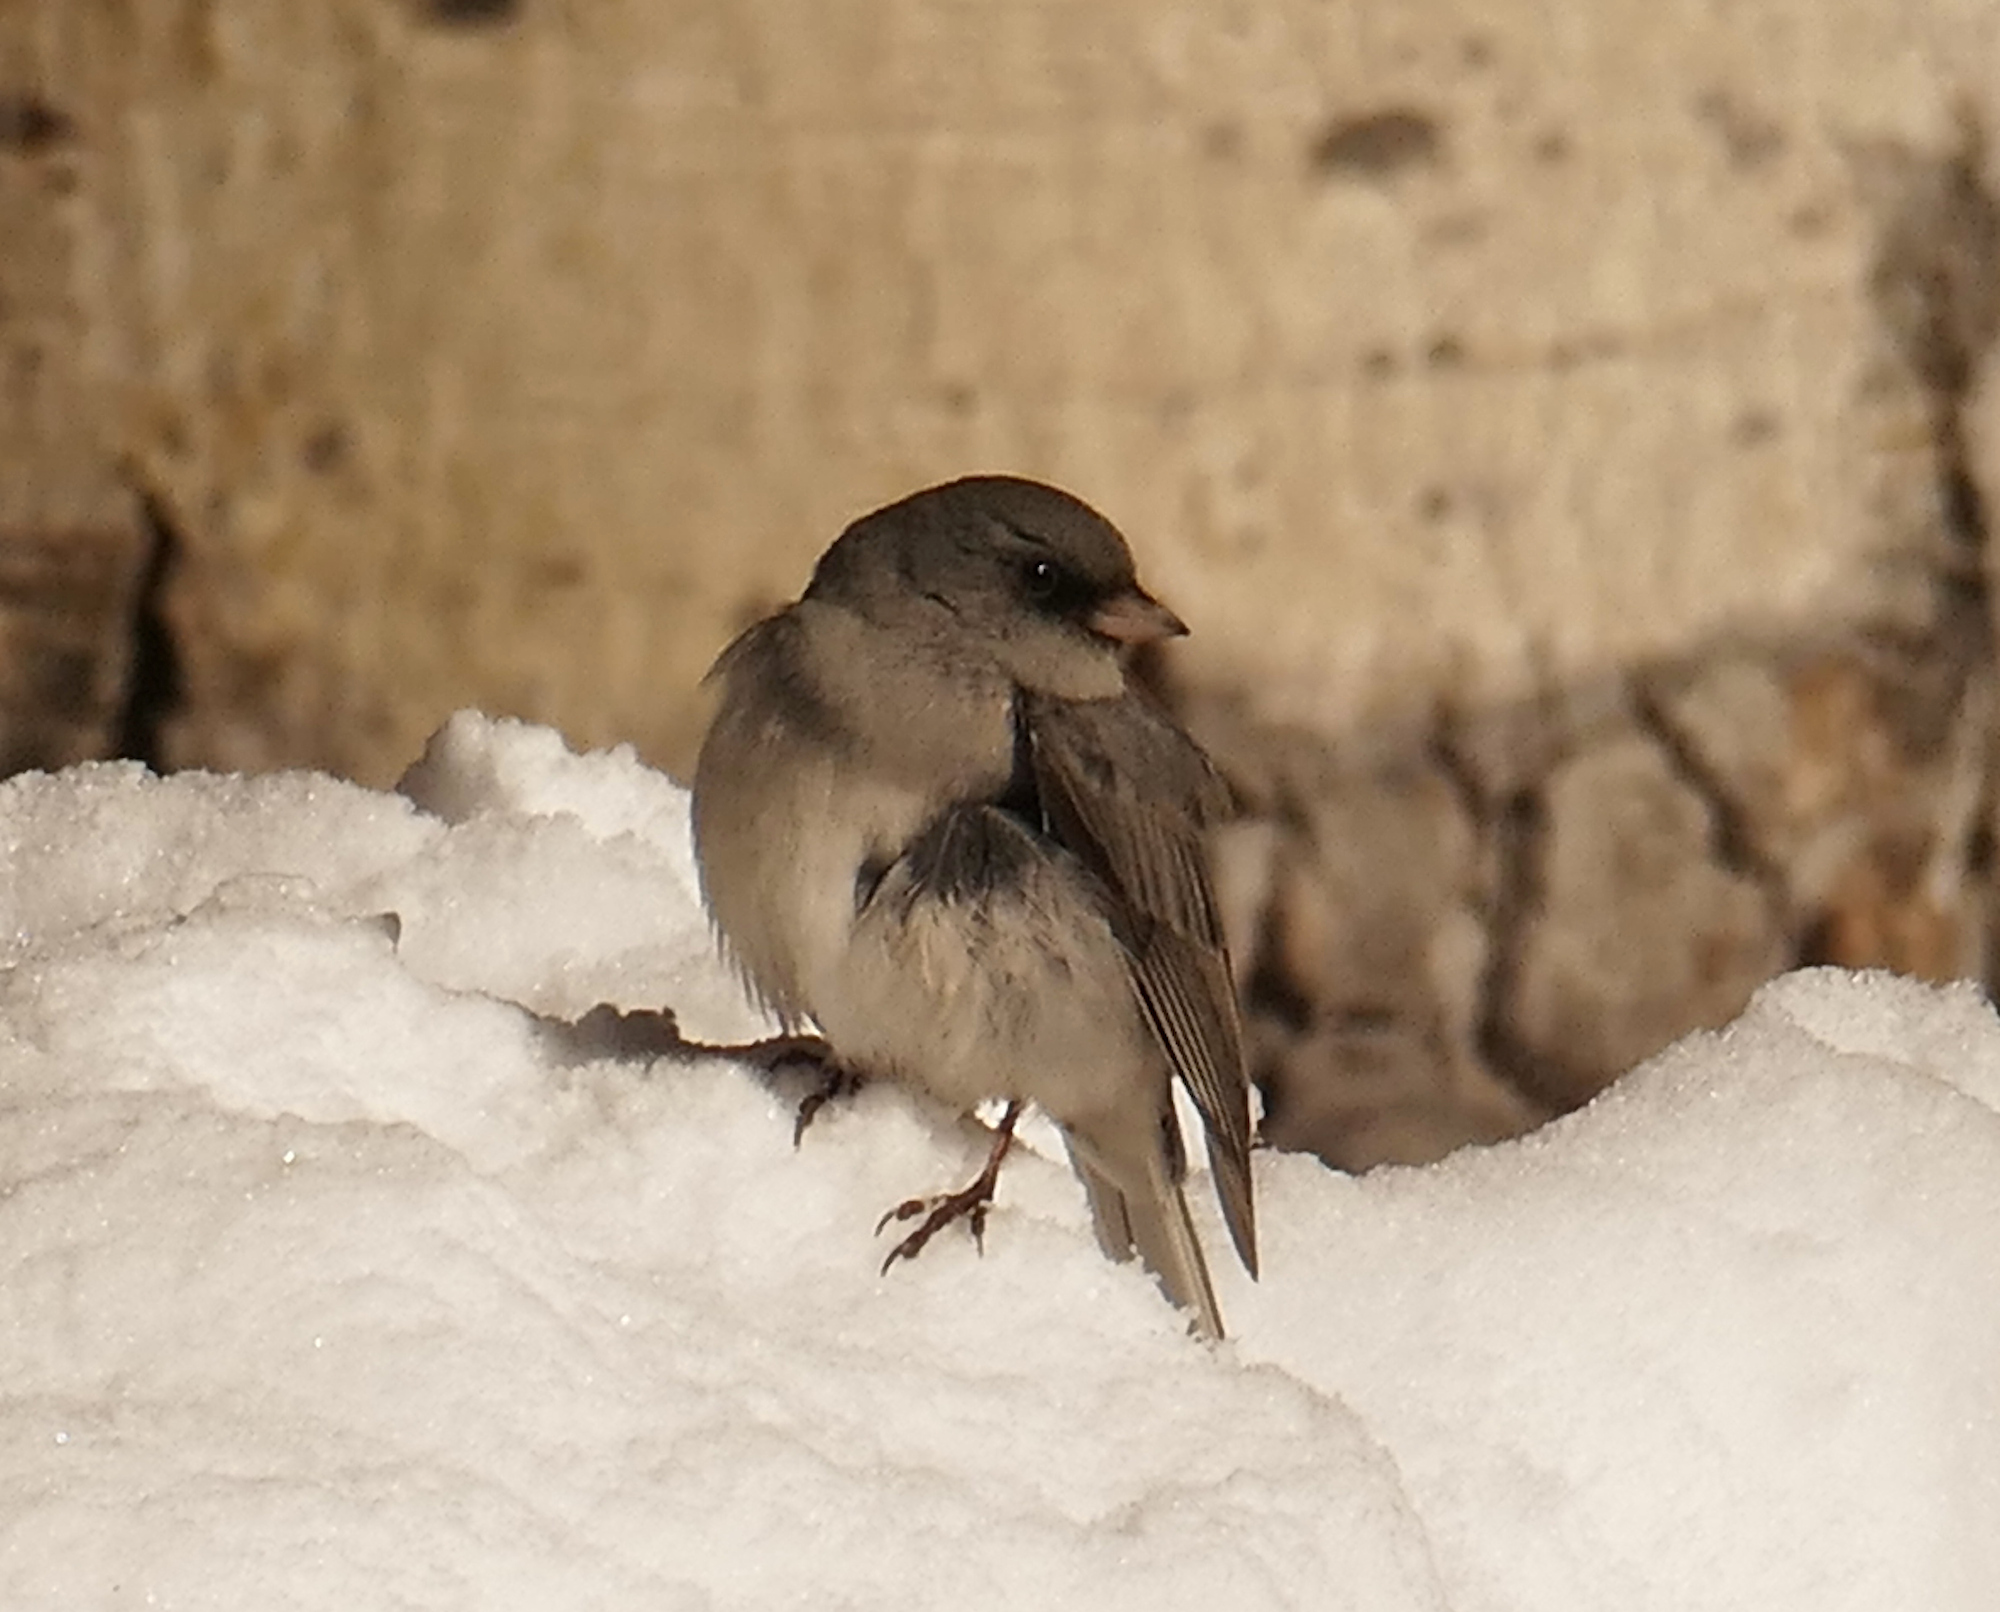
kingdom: Animalia
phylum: Chordata
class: Aves
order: Passeriformes
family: Passerellidae
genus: Junco
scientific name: Junco hyemalis
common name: Dark-eyed junco
